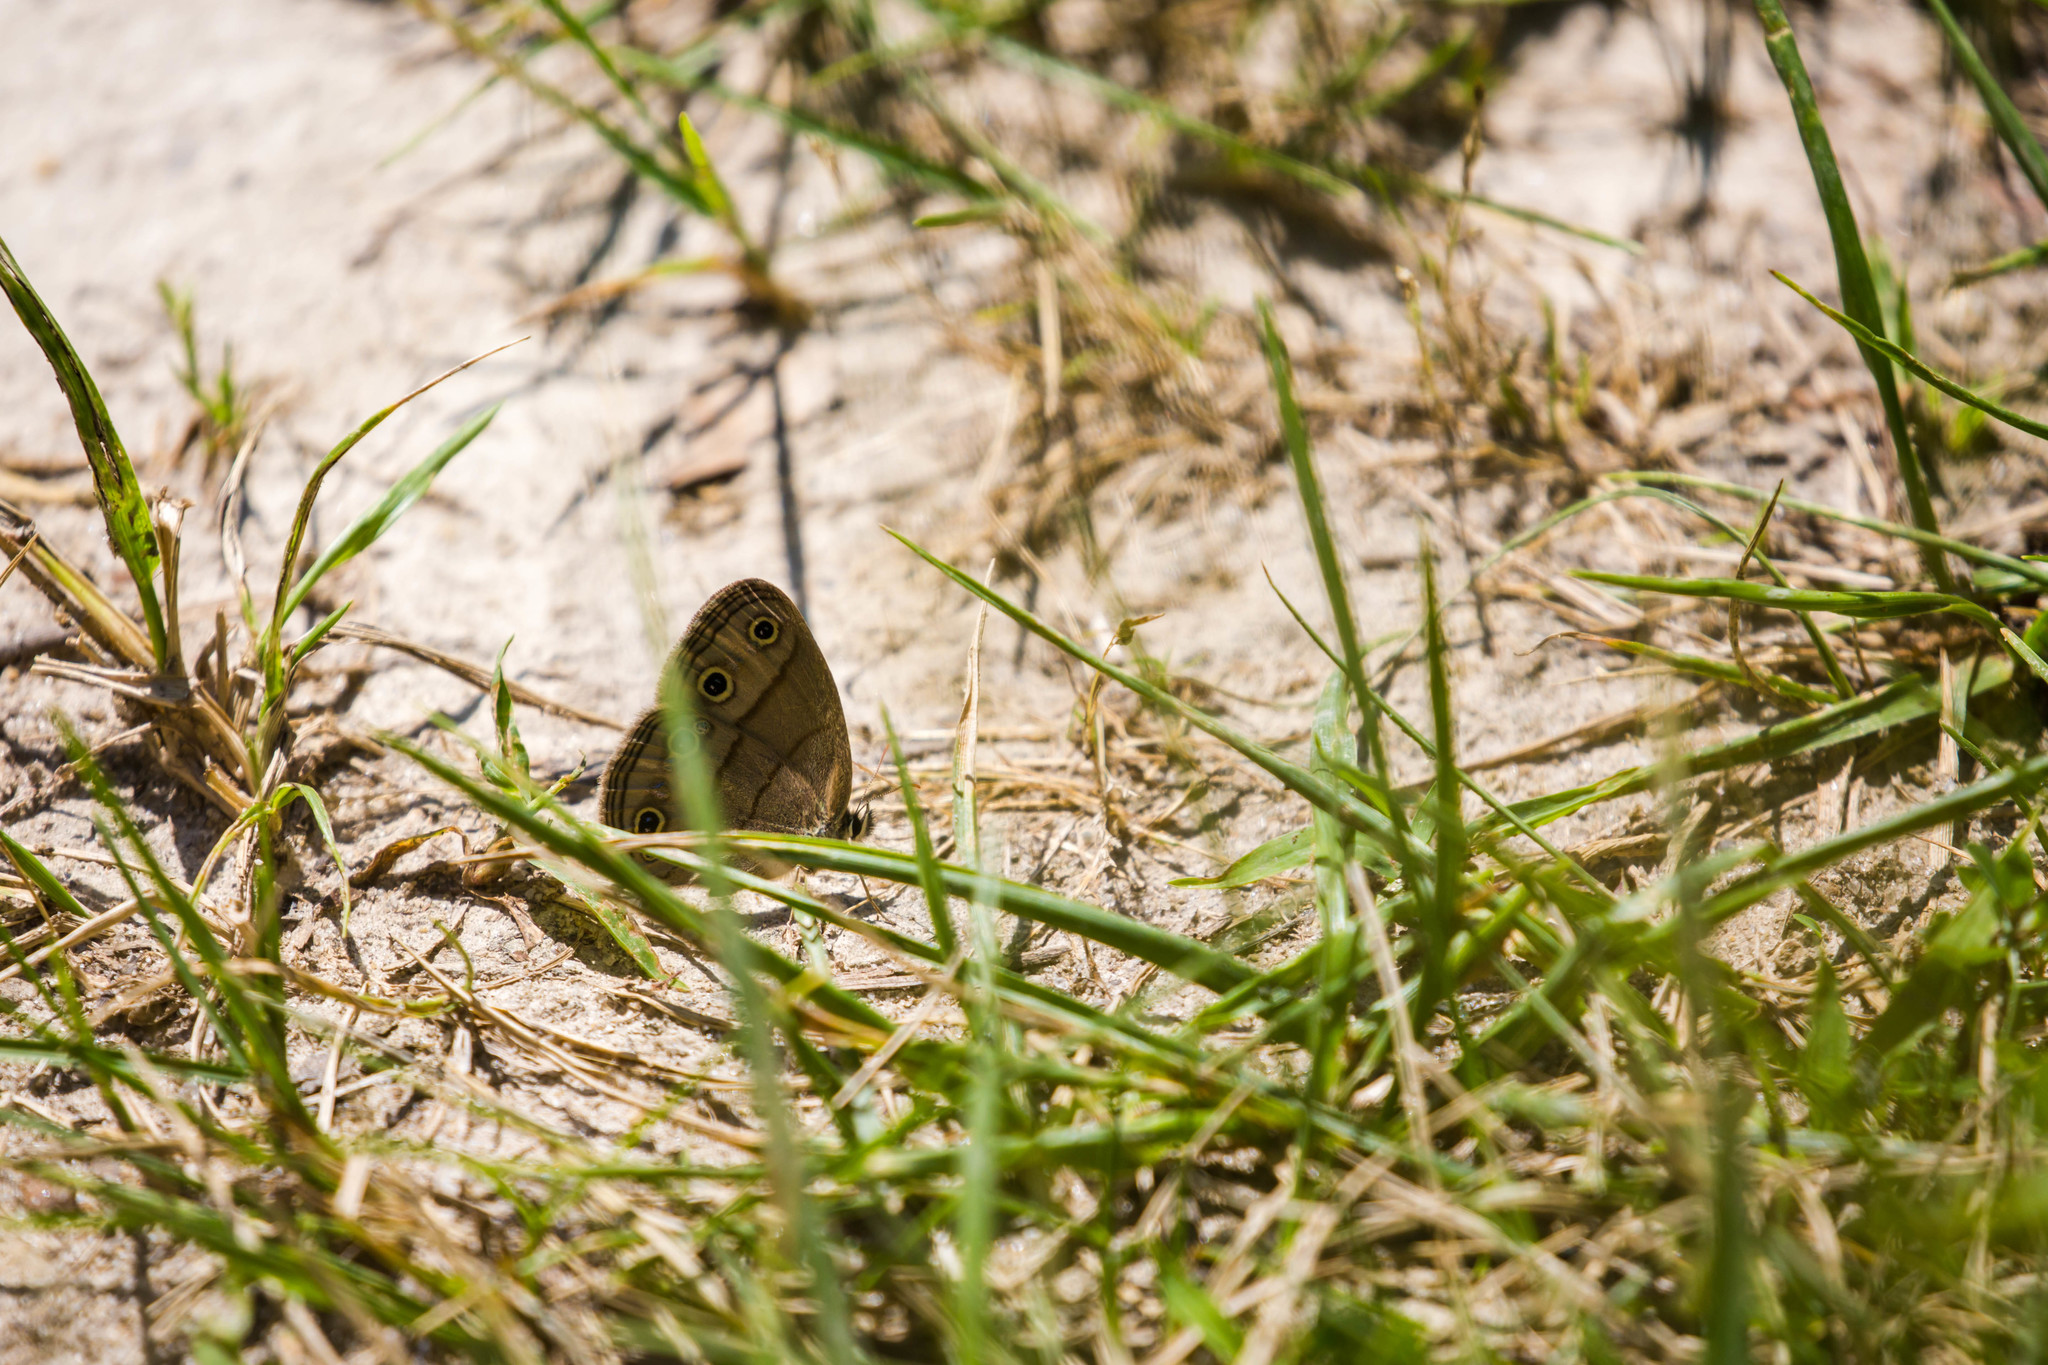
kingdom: Animalia
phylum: Arthropoda
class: Insecta
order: Lepidoptera
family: Nymphalidae
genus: Euptychia
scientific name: Euptychia cymela
